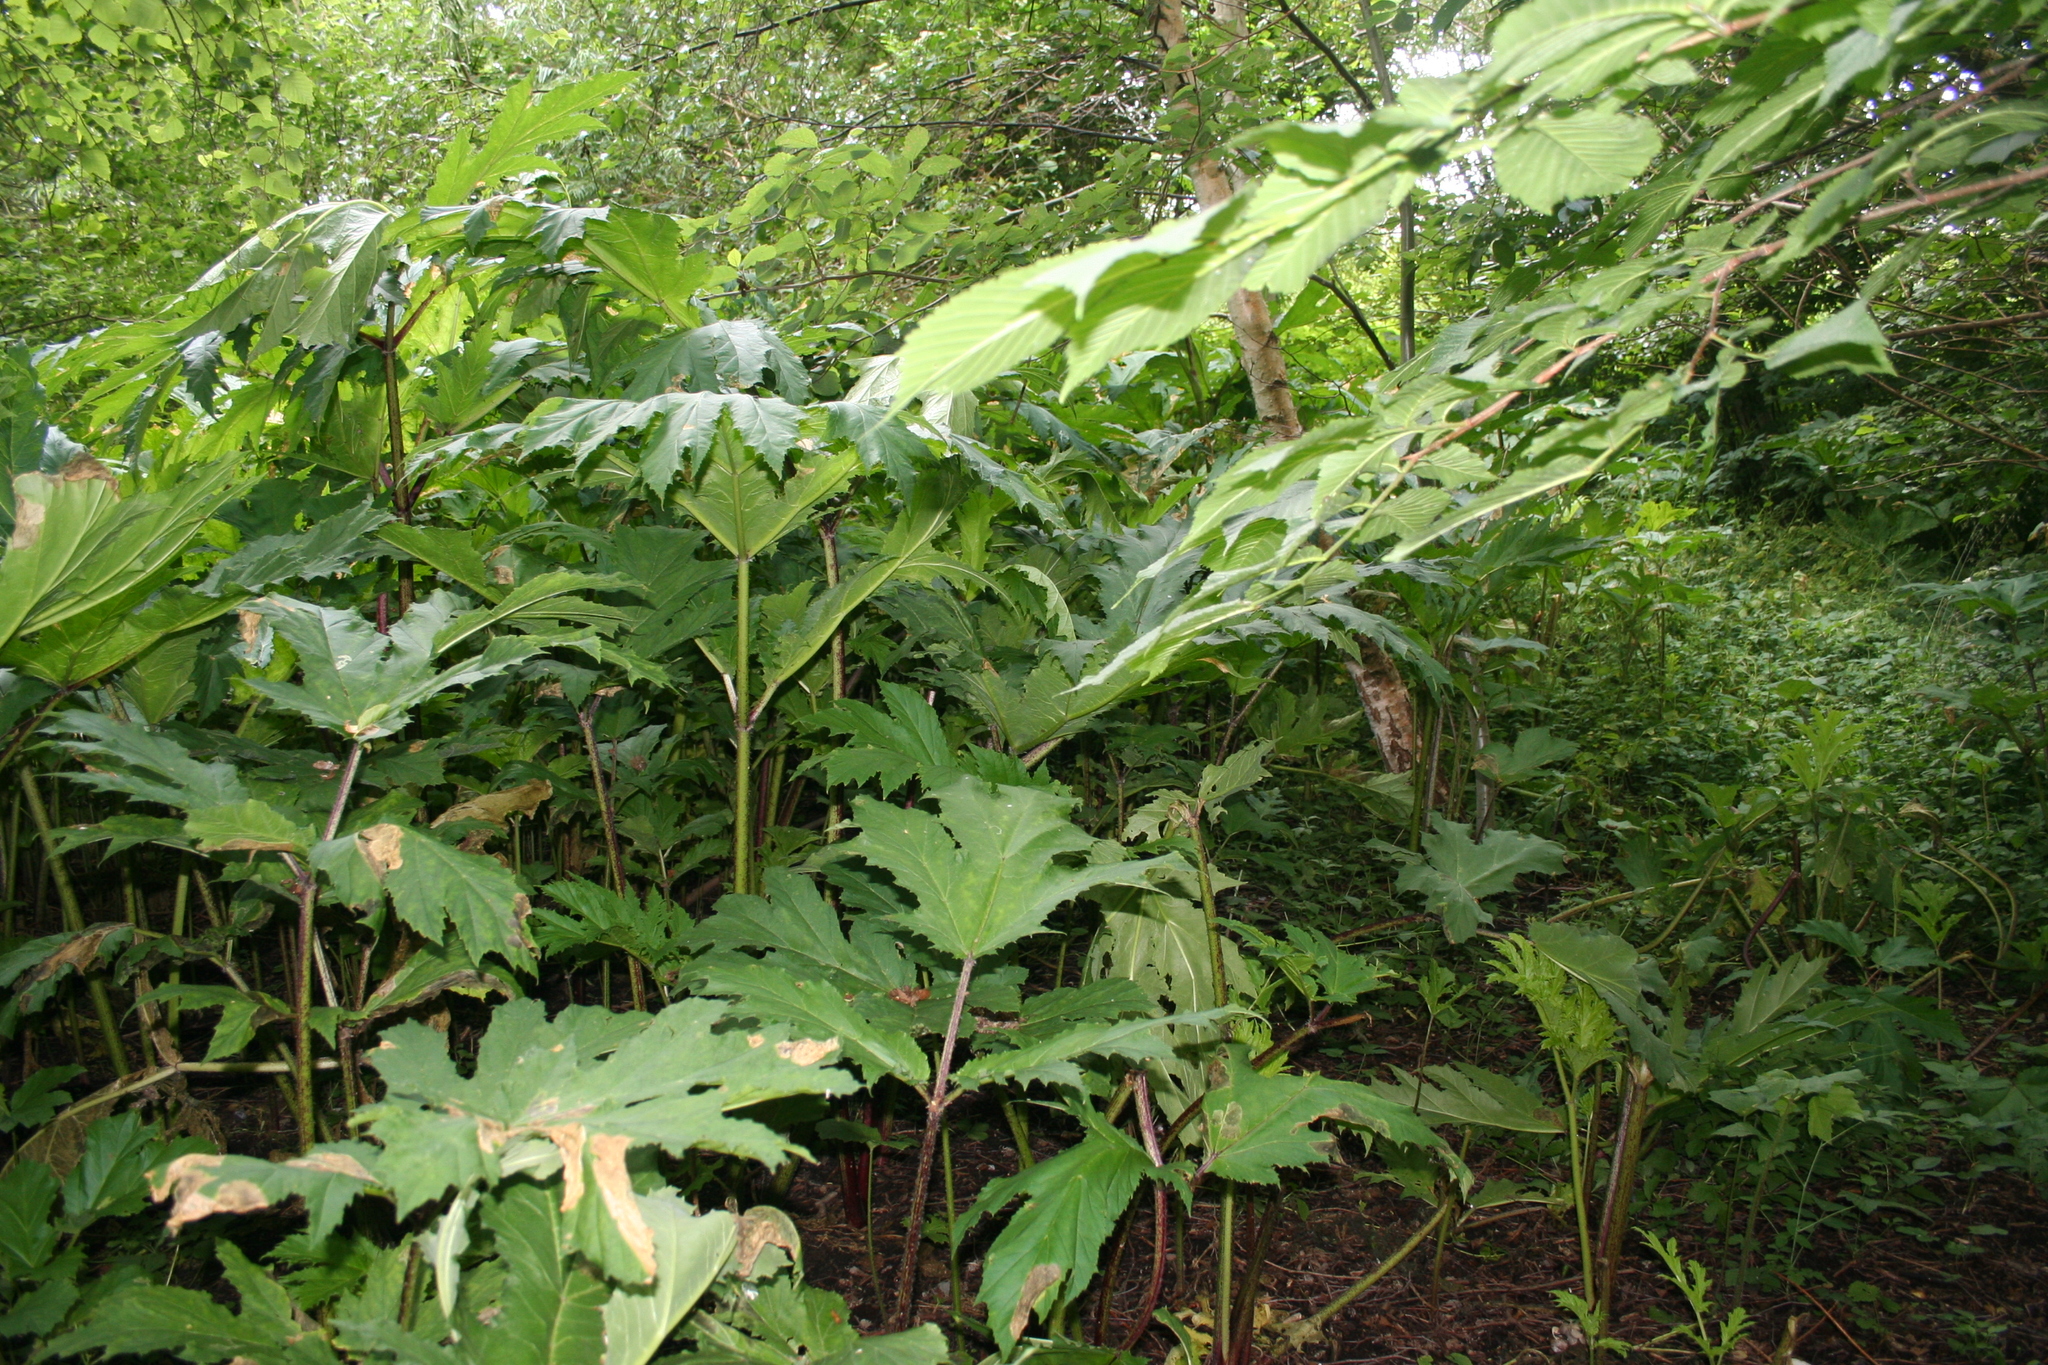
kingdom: Plantae
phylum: Tracheophyta
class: Magnoliopsida
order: Apiales
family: Apiaceae
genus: Heracleum
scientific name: Heracleum mantegazzianum
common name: Giant hogweed
